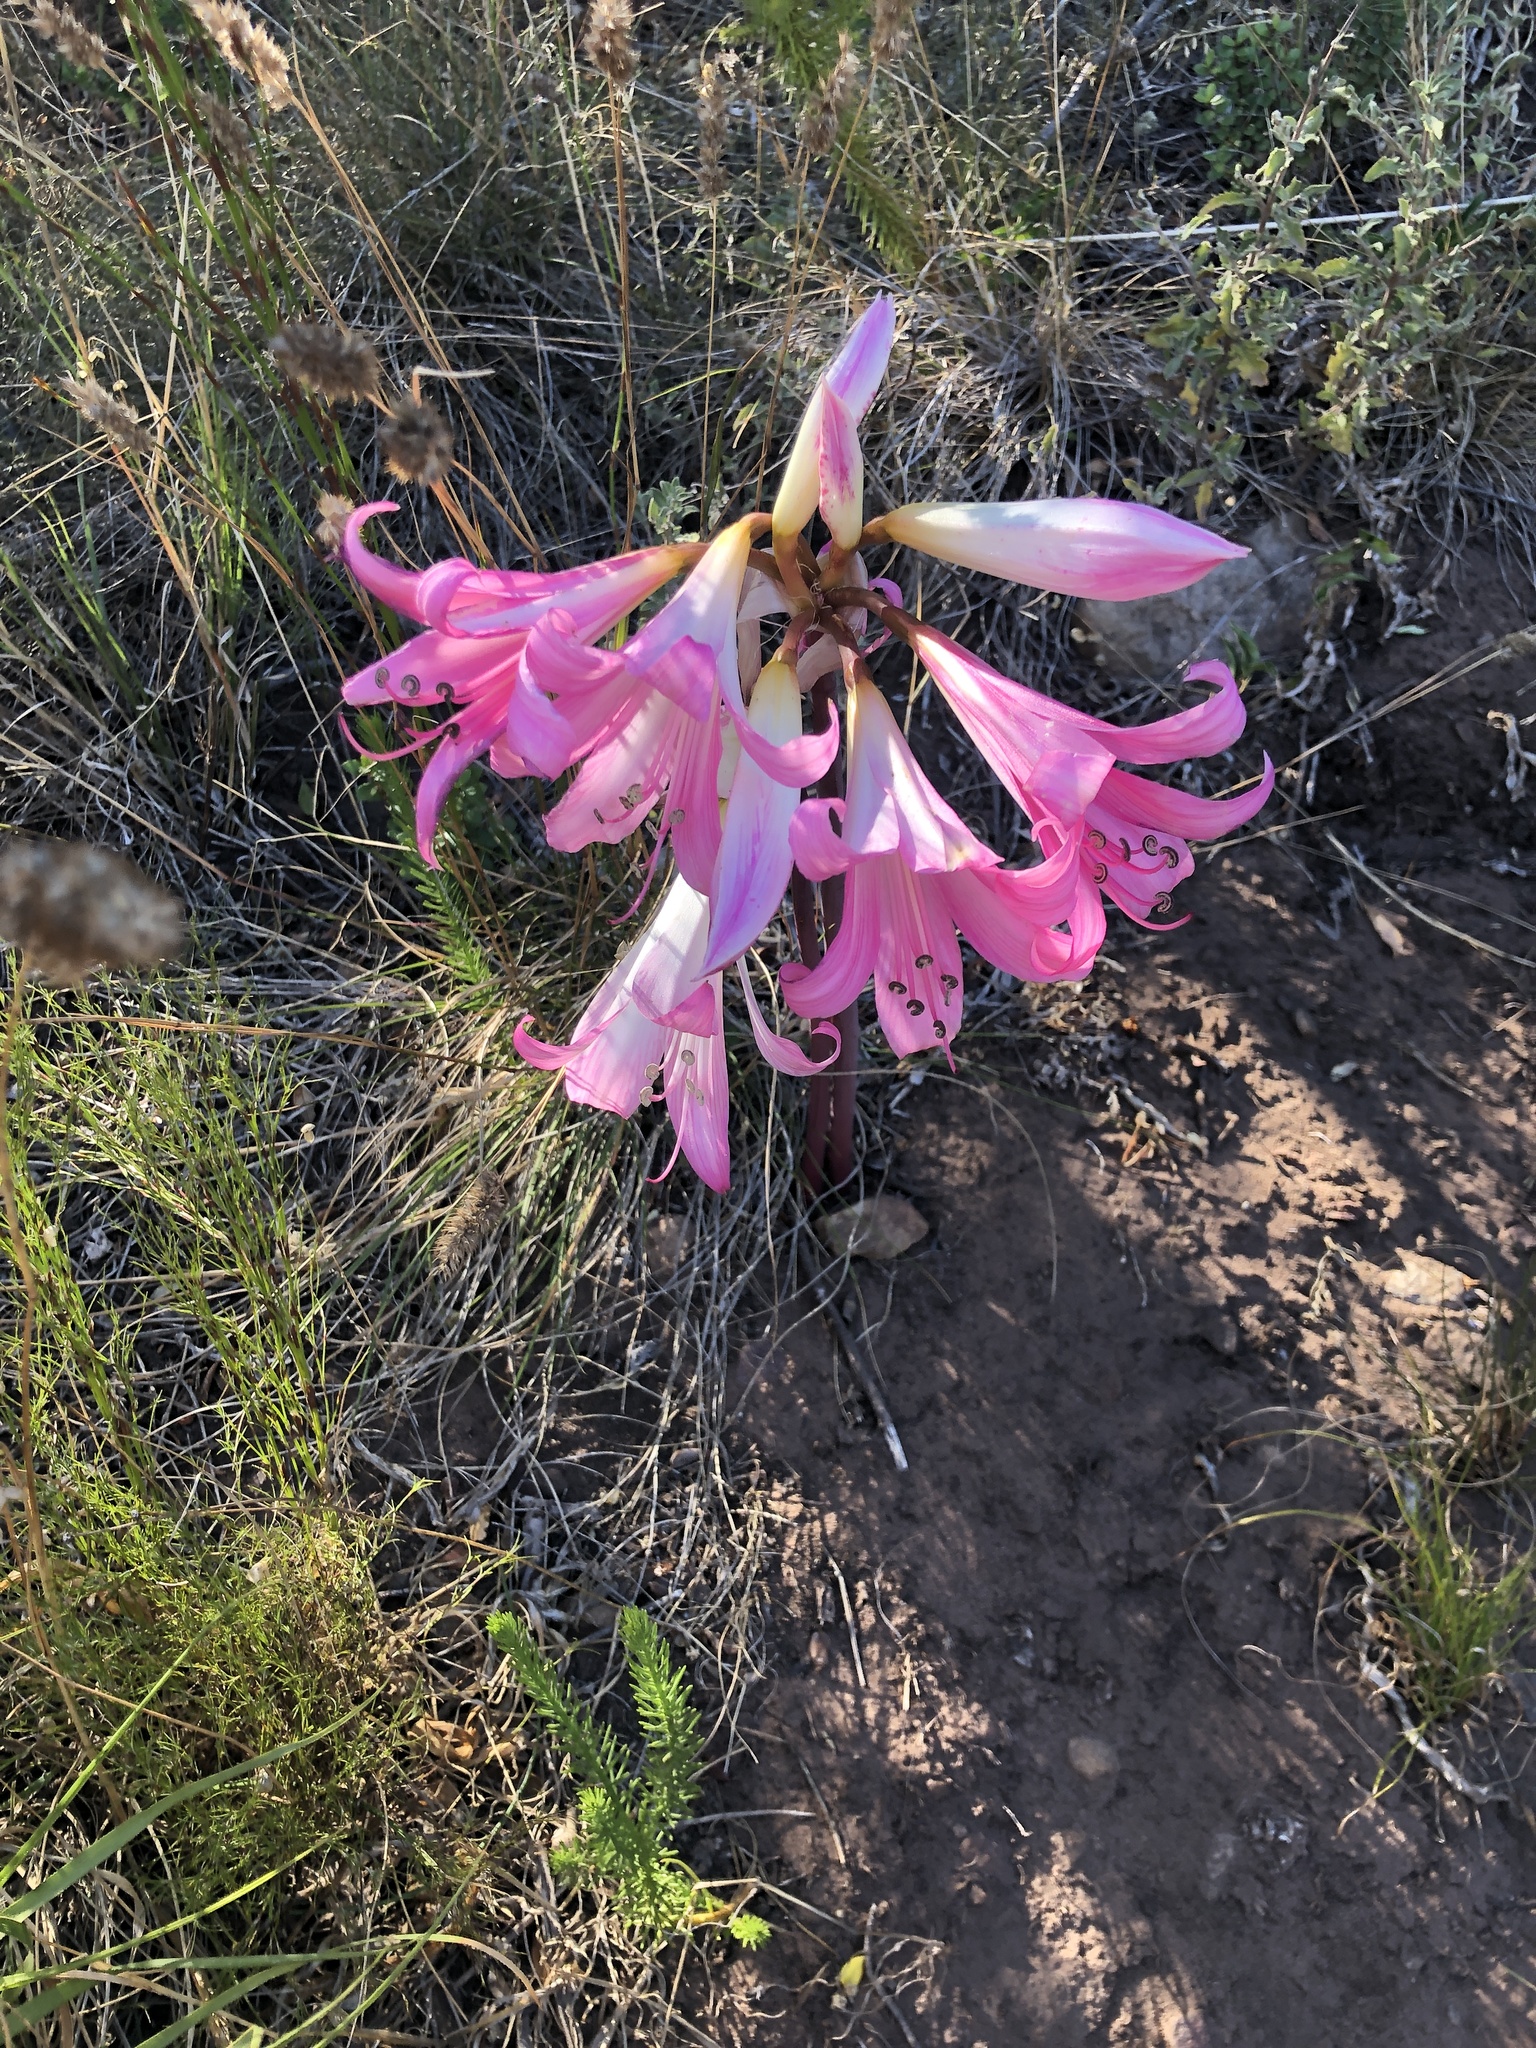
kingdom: Plantae
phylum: Tracheophyta
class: Liliopsida
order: Asparagales
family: Amaryllidaceae
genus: Amaryllis
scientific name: Amaryllis belladonna
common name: Jersey lily
